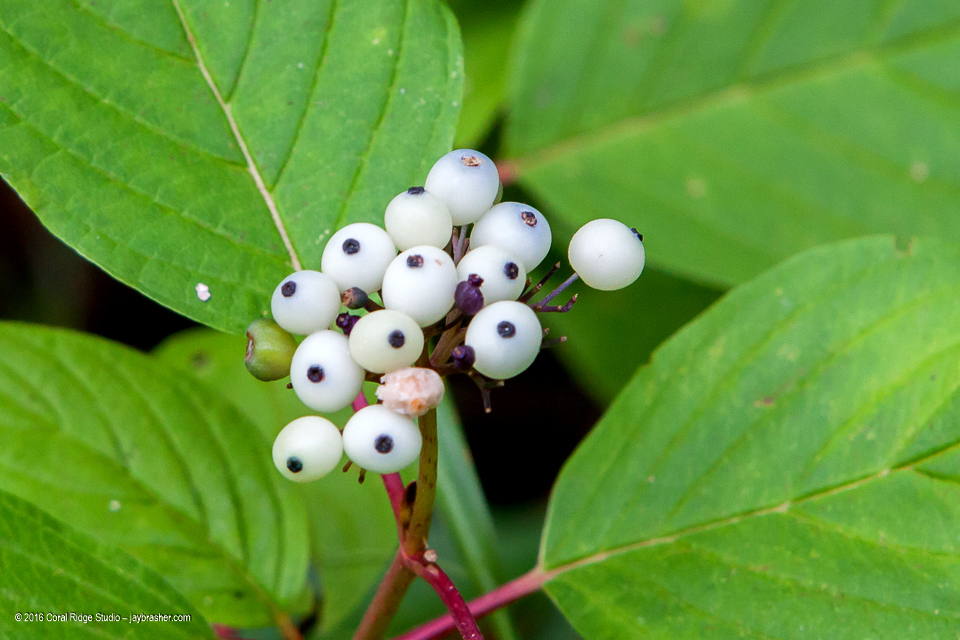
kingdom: Plantae
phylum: Tracheophyta
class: Magnoliopsida
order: Cornales
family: Cornaceae
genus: Cornus
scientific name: Cornus sericea
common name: Red-osier dogwood
